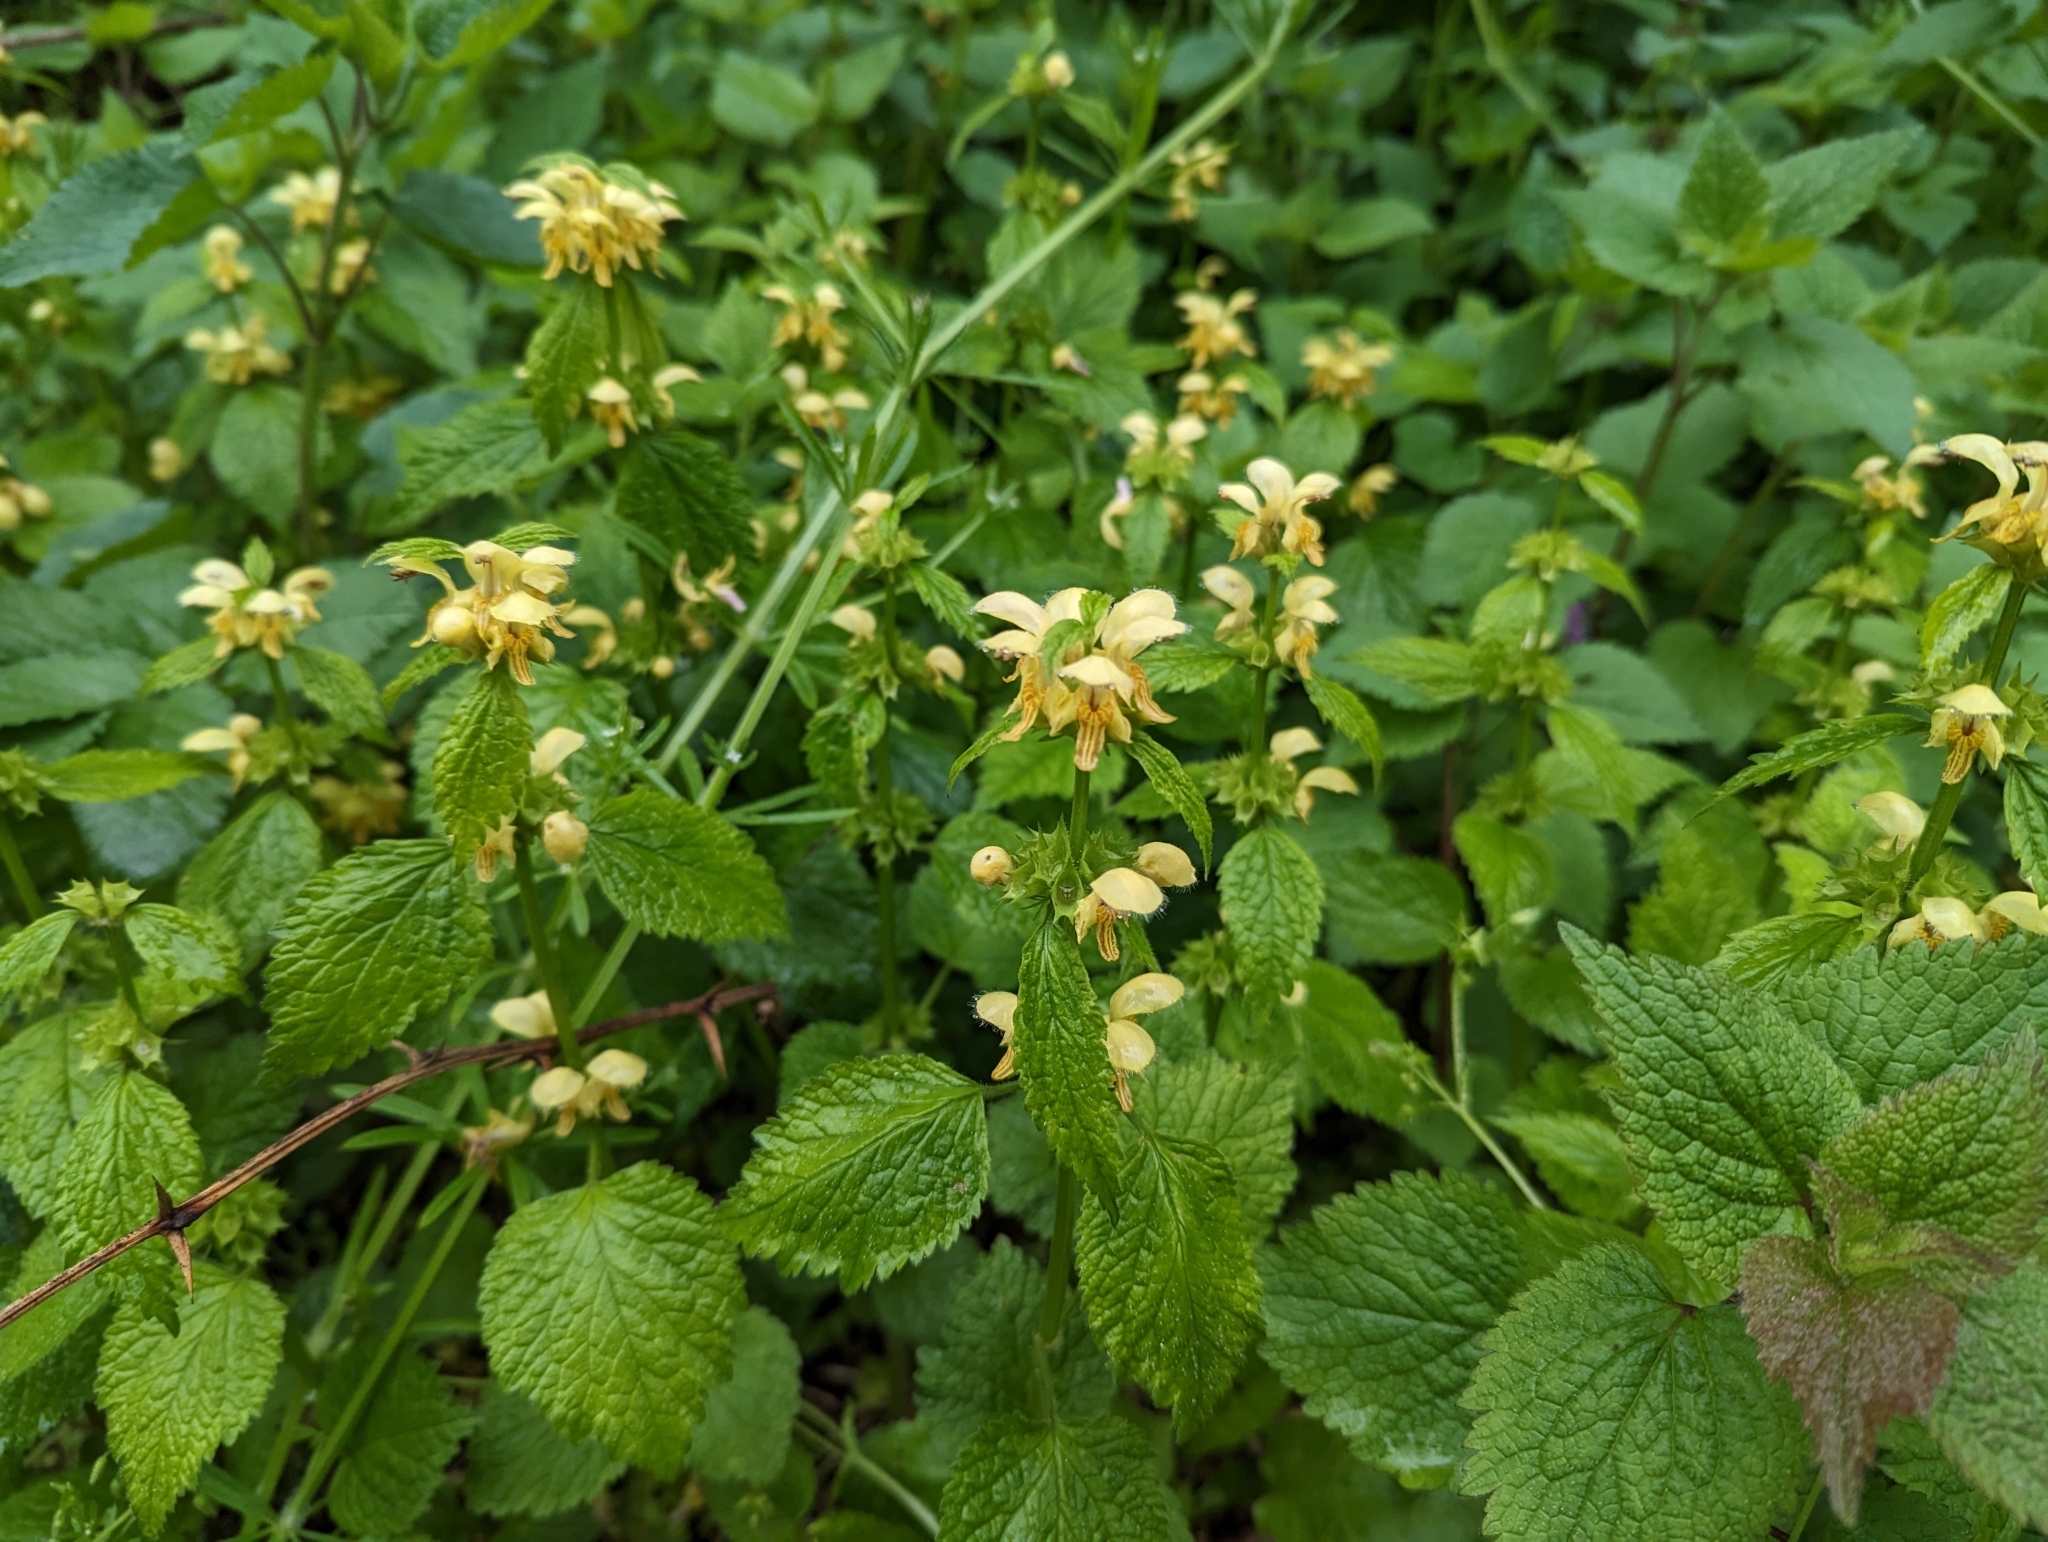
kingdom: Plantae
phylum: Tracheophyta
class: Magnoliopsida
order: Lamiales
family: Lamiaceae
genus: Lamium
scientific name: Lamium galeobdolon
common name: Yellow archangel
